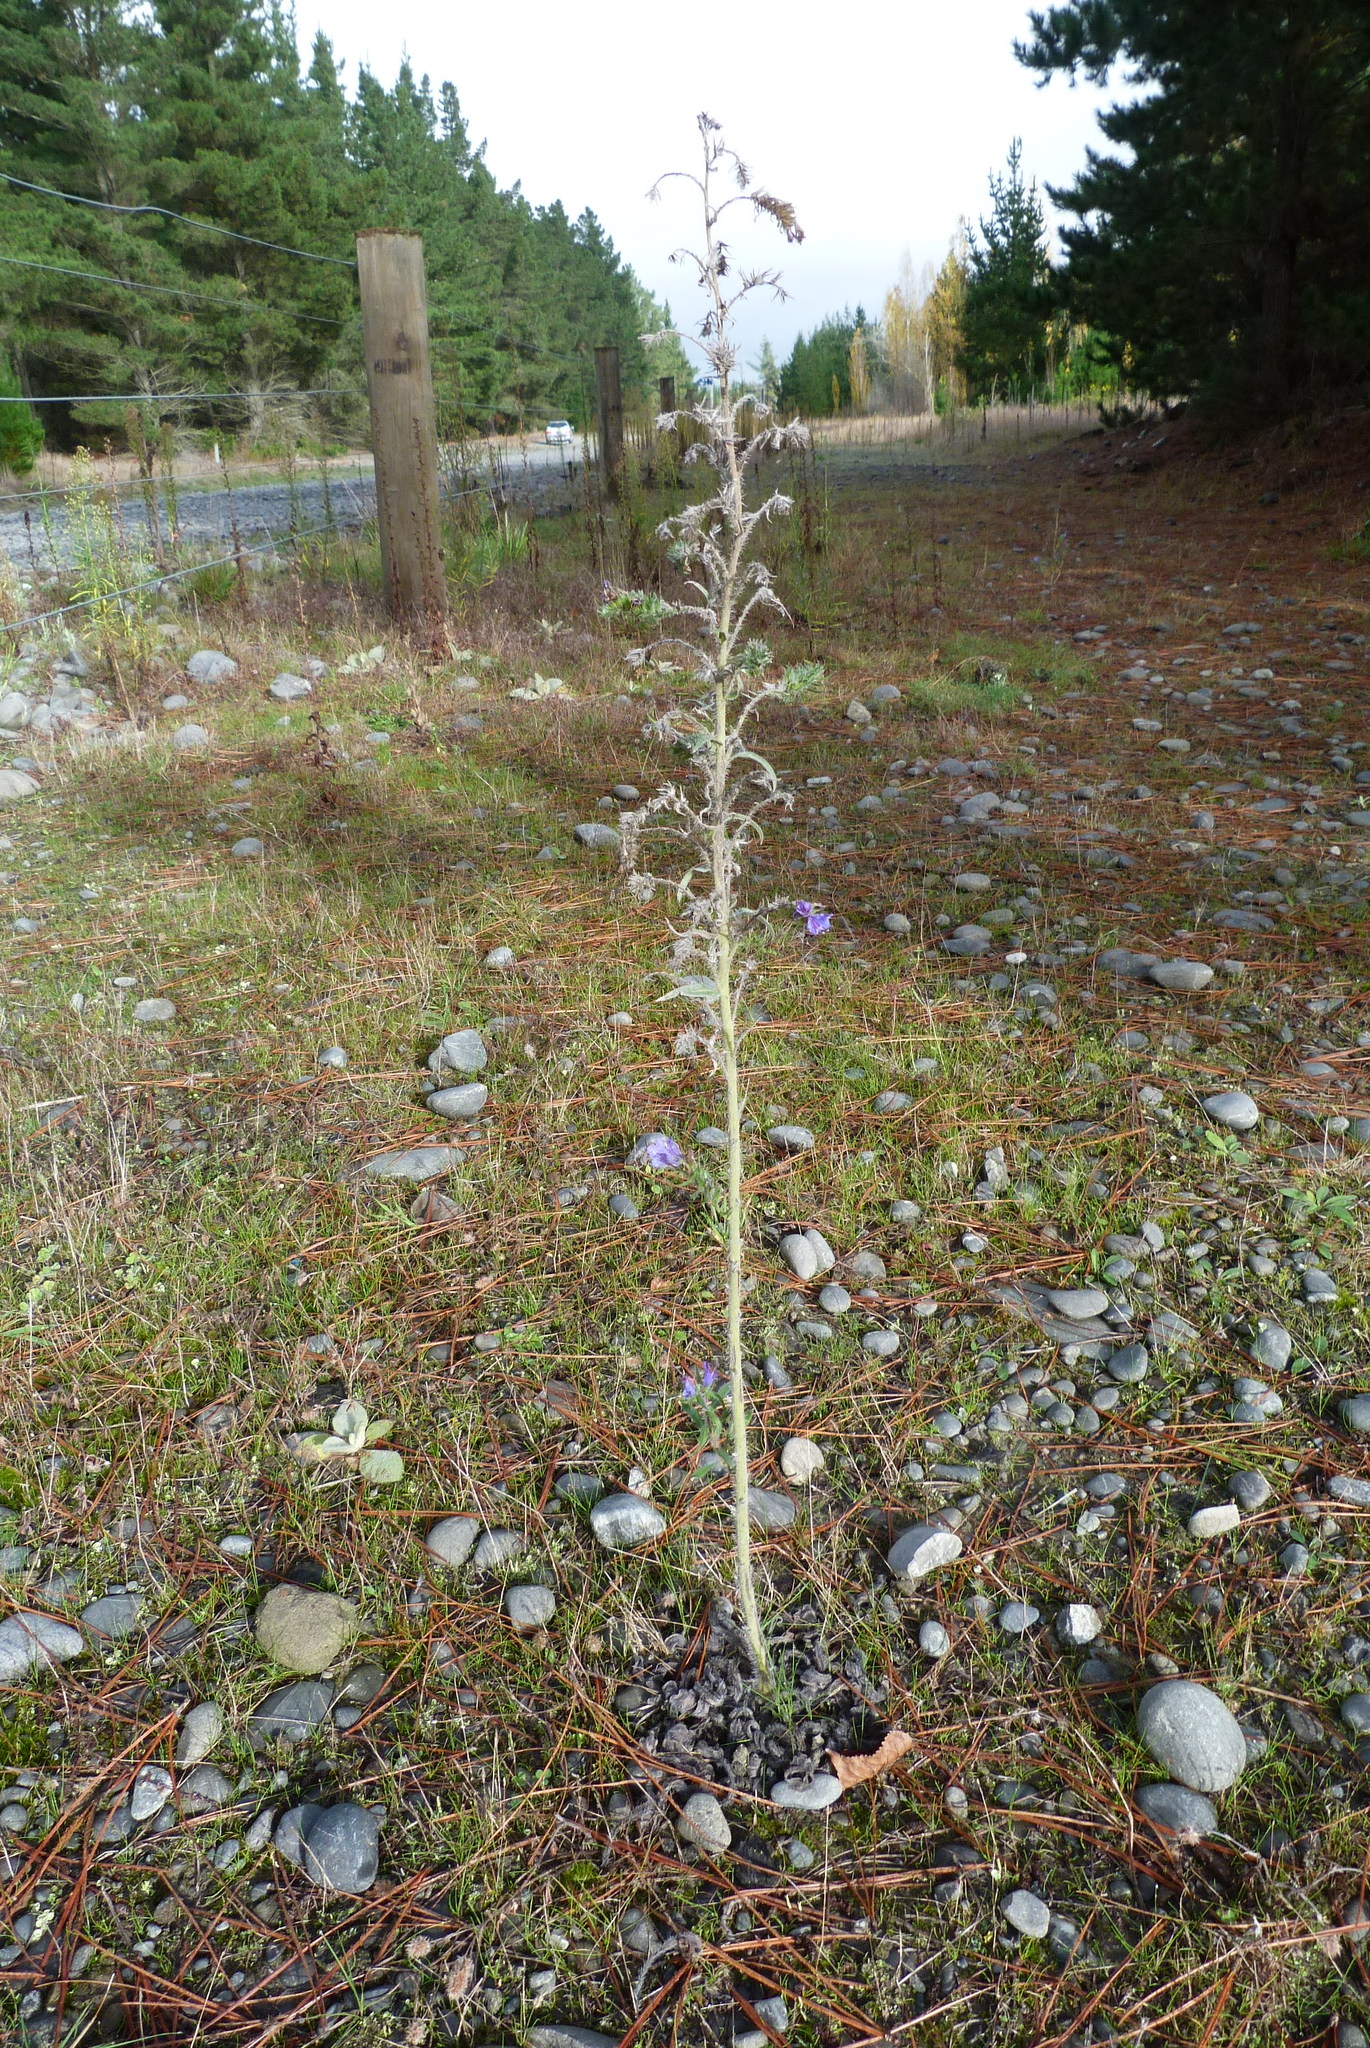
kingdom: Plantae
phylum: Tracheophyta
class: Magnoliopsida
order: Boraginales
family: Boraginaceae
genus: Echium
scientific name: Echium vulgare
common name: Common viper's bugloss
